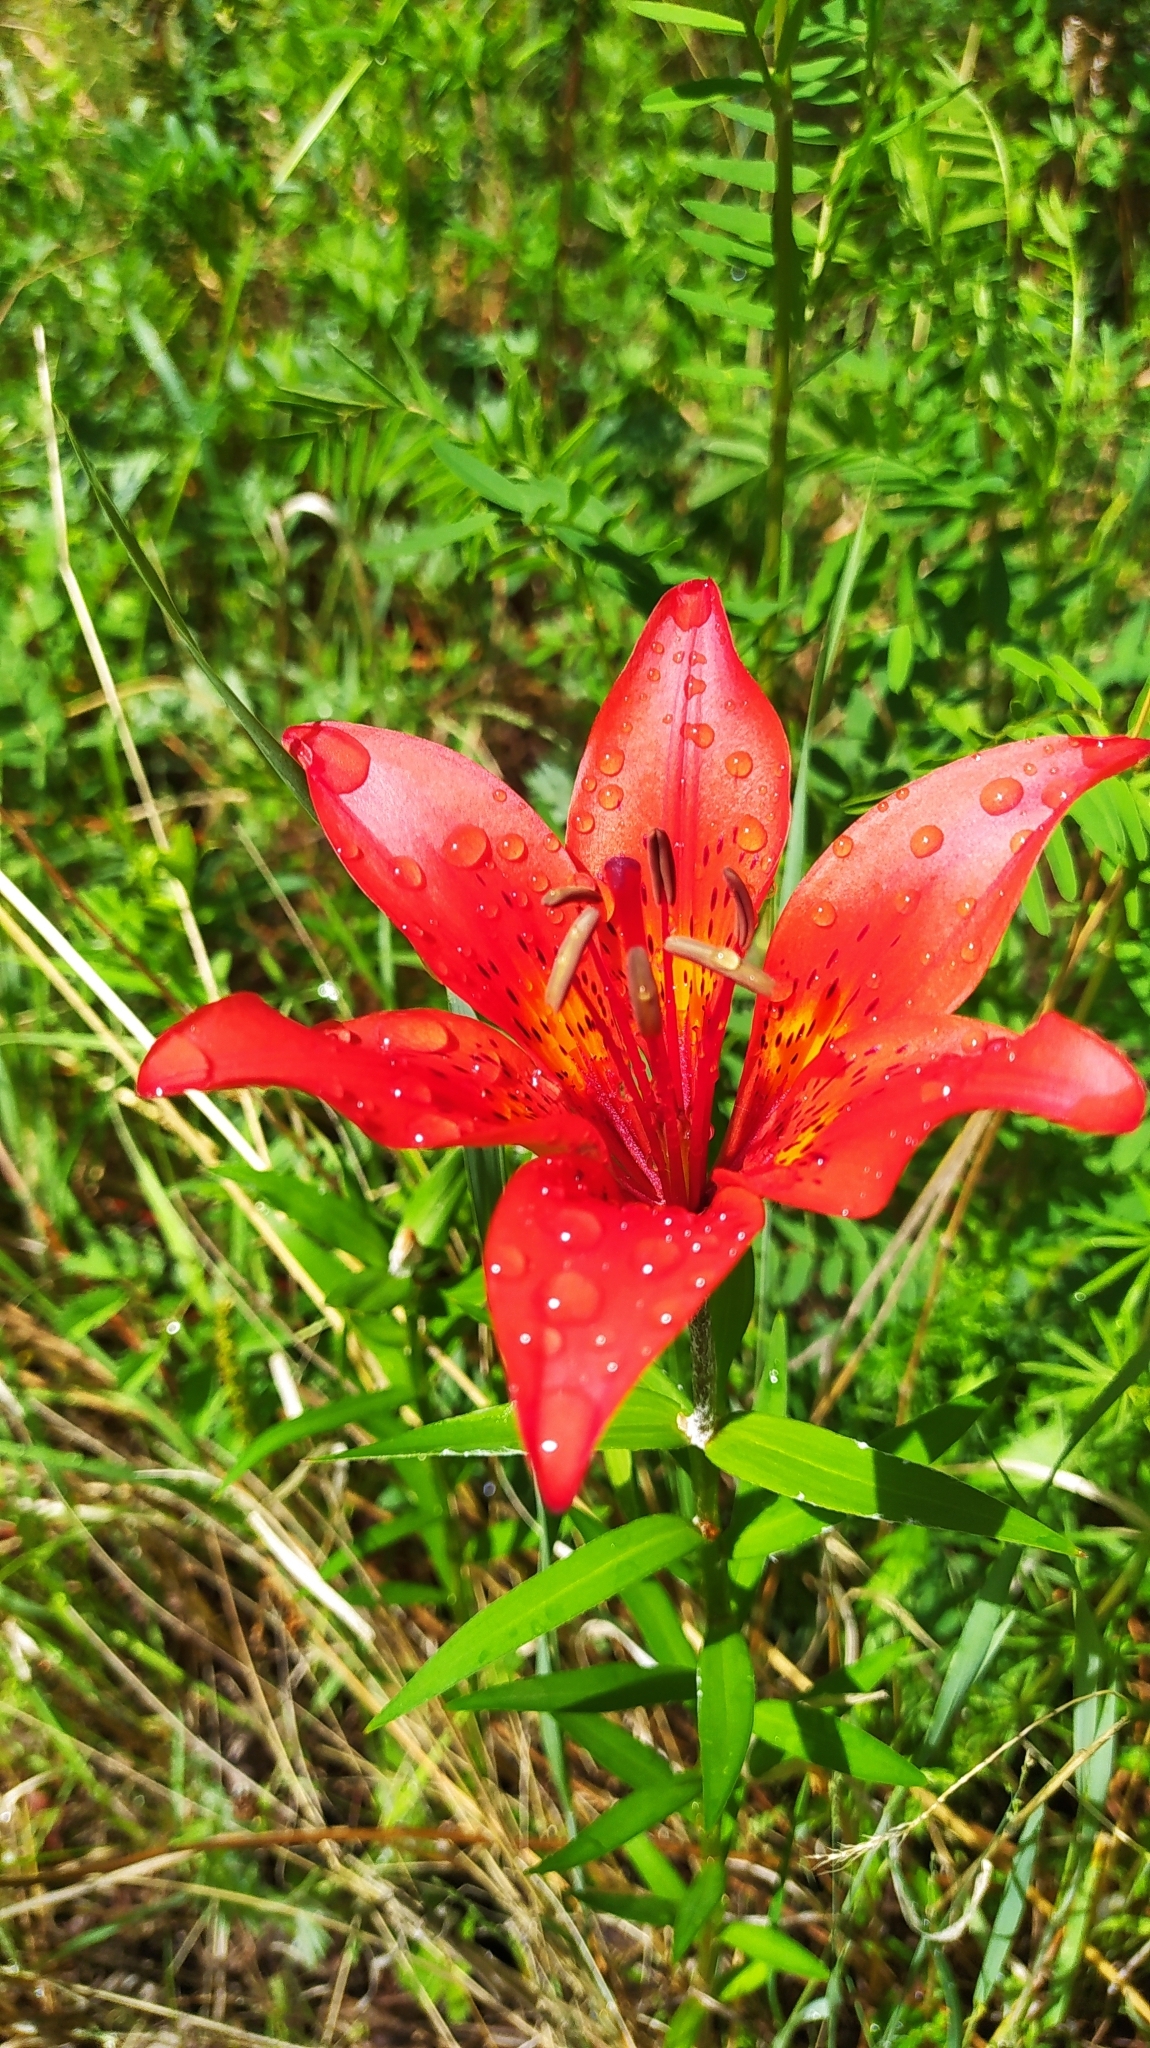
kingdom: Plantae
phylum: Tracheophyta
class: Liliopsida
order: Liliales
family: Liliaceae
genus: Lilium
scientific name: Lilium pensylvanicum
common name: Candlestick lily
